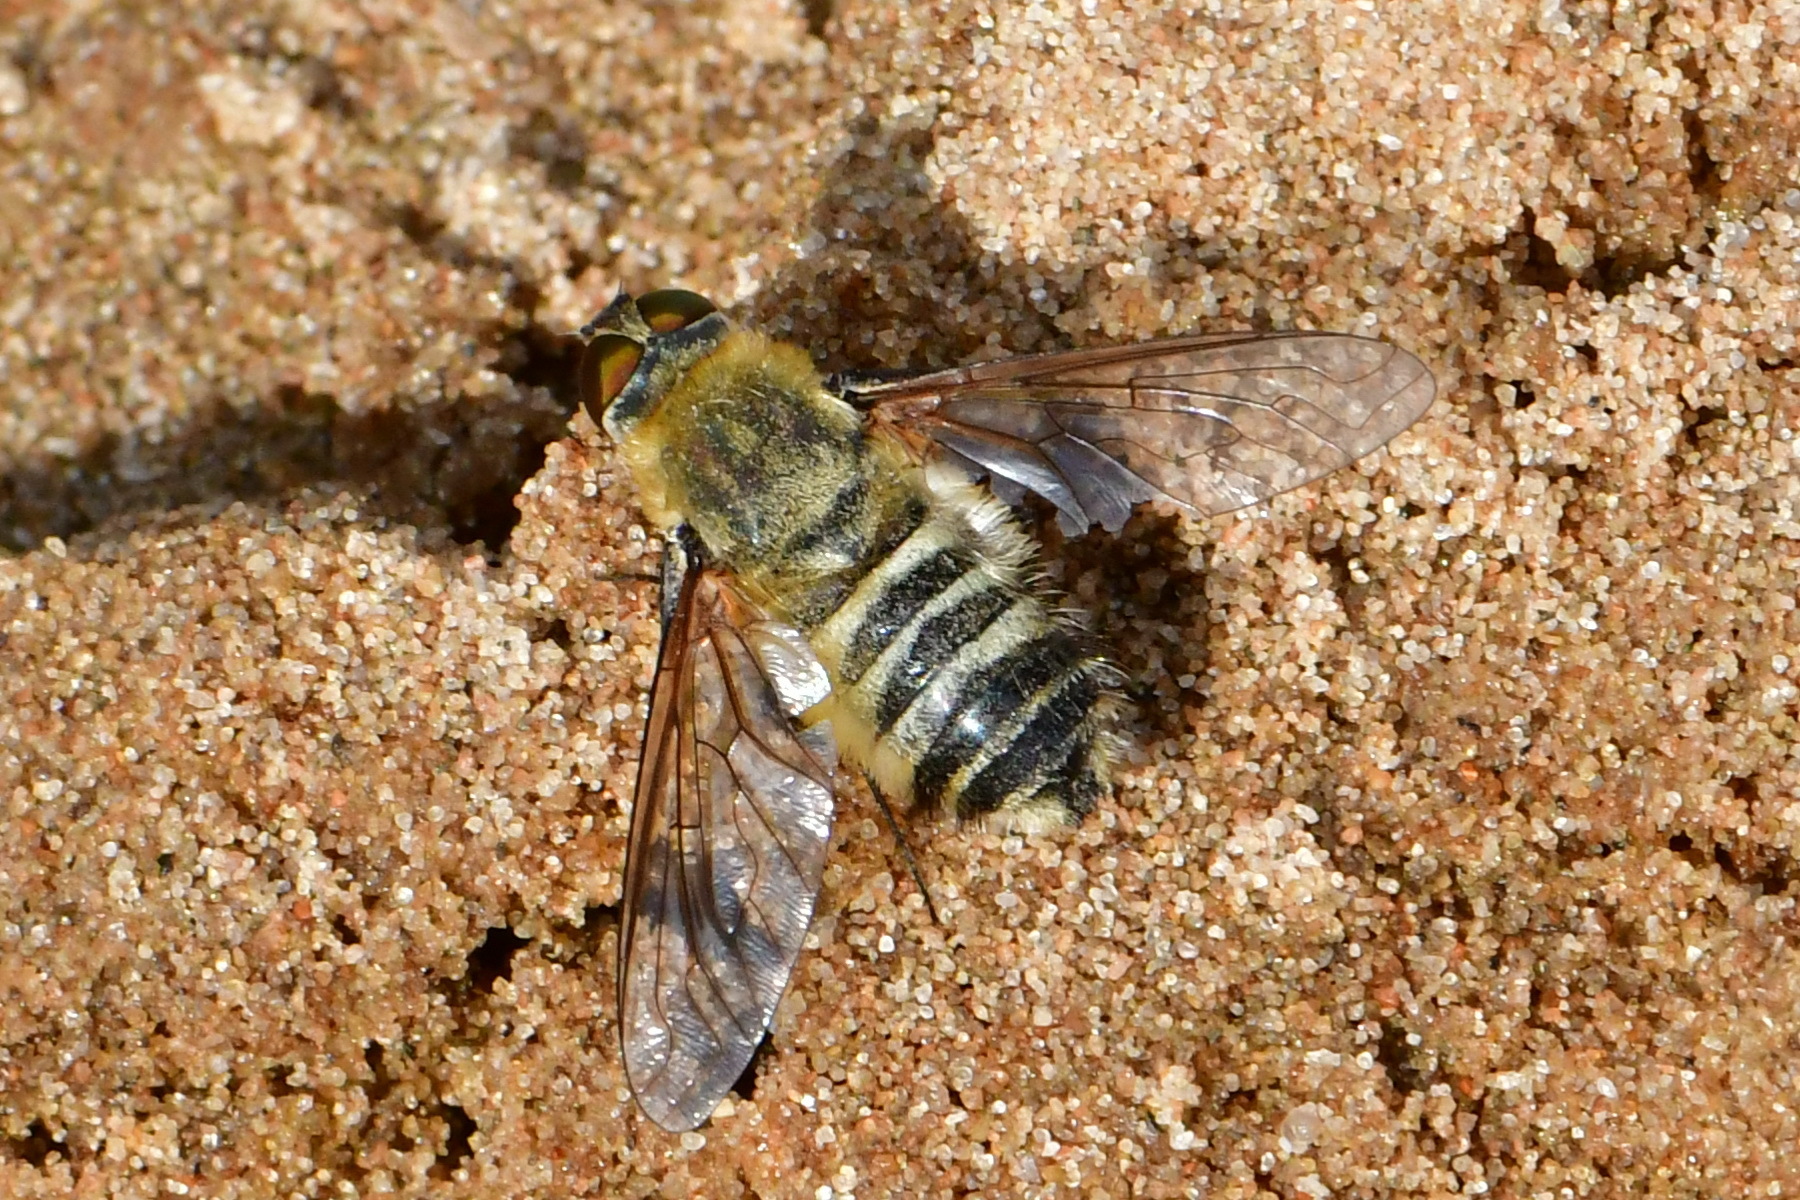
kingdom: Animalia
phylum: Arthropoda
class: Insecta
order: Diptera
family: Bombyliidae
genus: Villa
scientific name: Villa hottentotta
